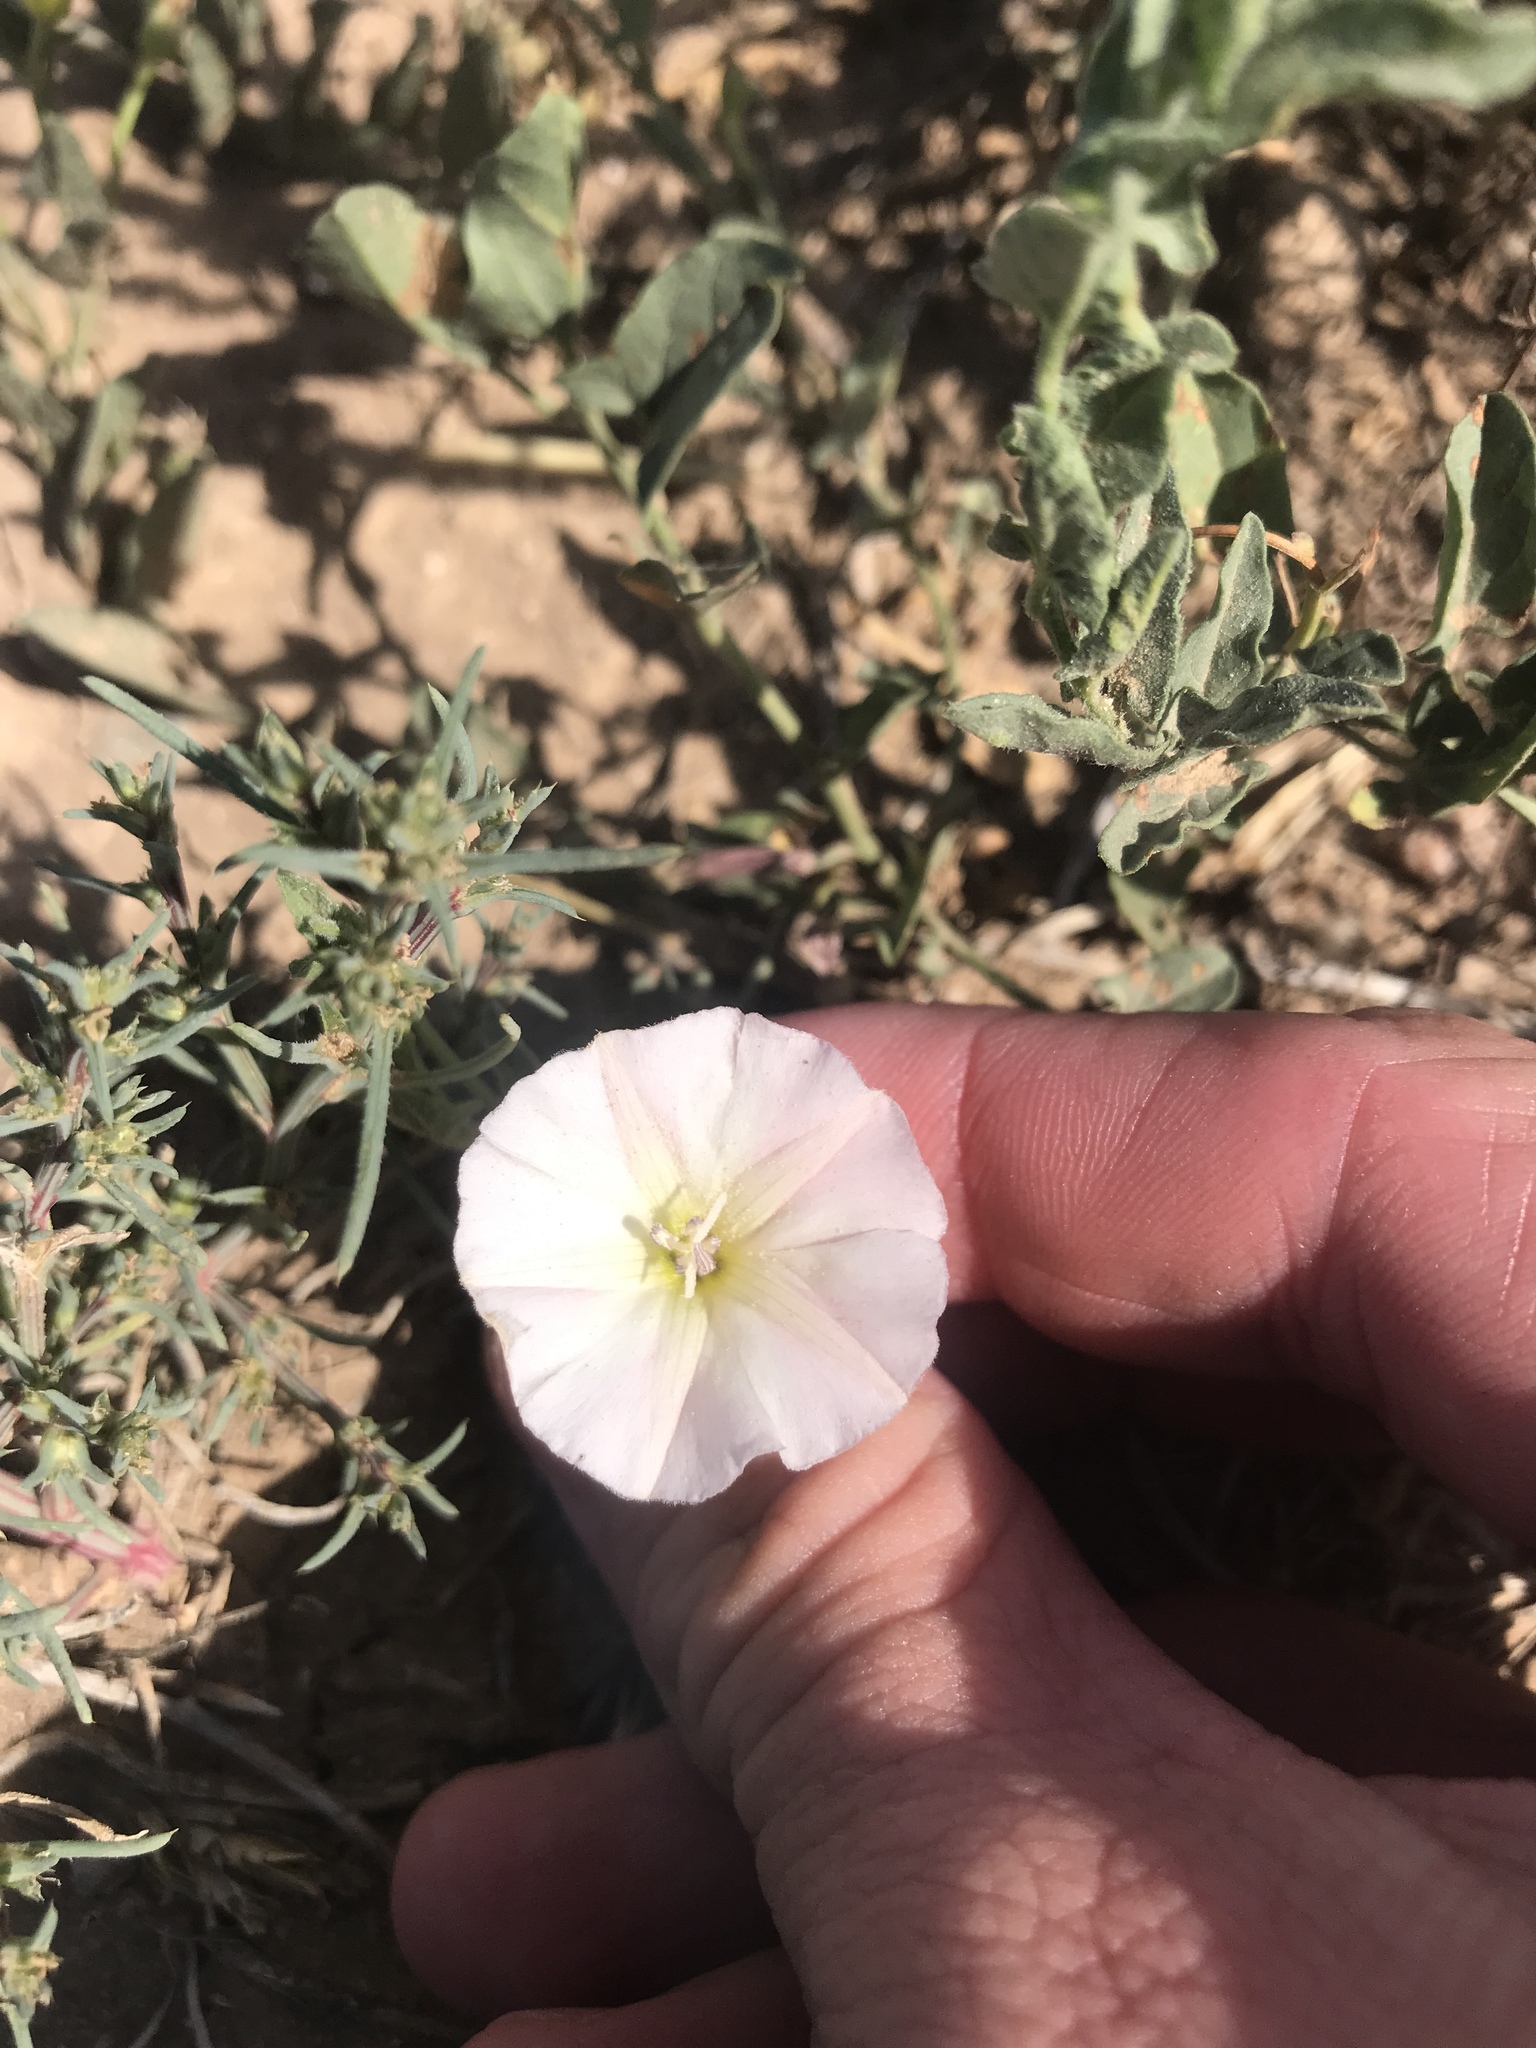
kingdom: Plantae
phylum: Tracheophyta
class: Magnoliopsida
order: Solanales
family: Convolvulaceae
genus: Convolvulus
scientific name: Convolvulus arvensis
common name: Field bindweed
